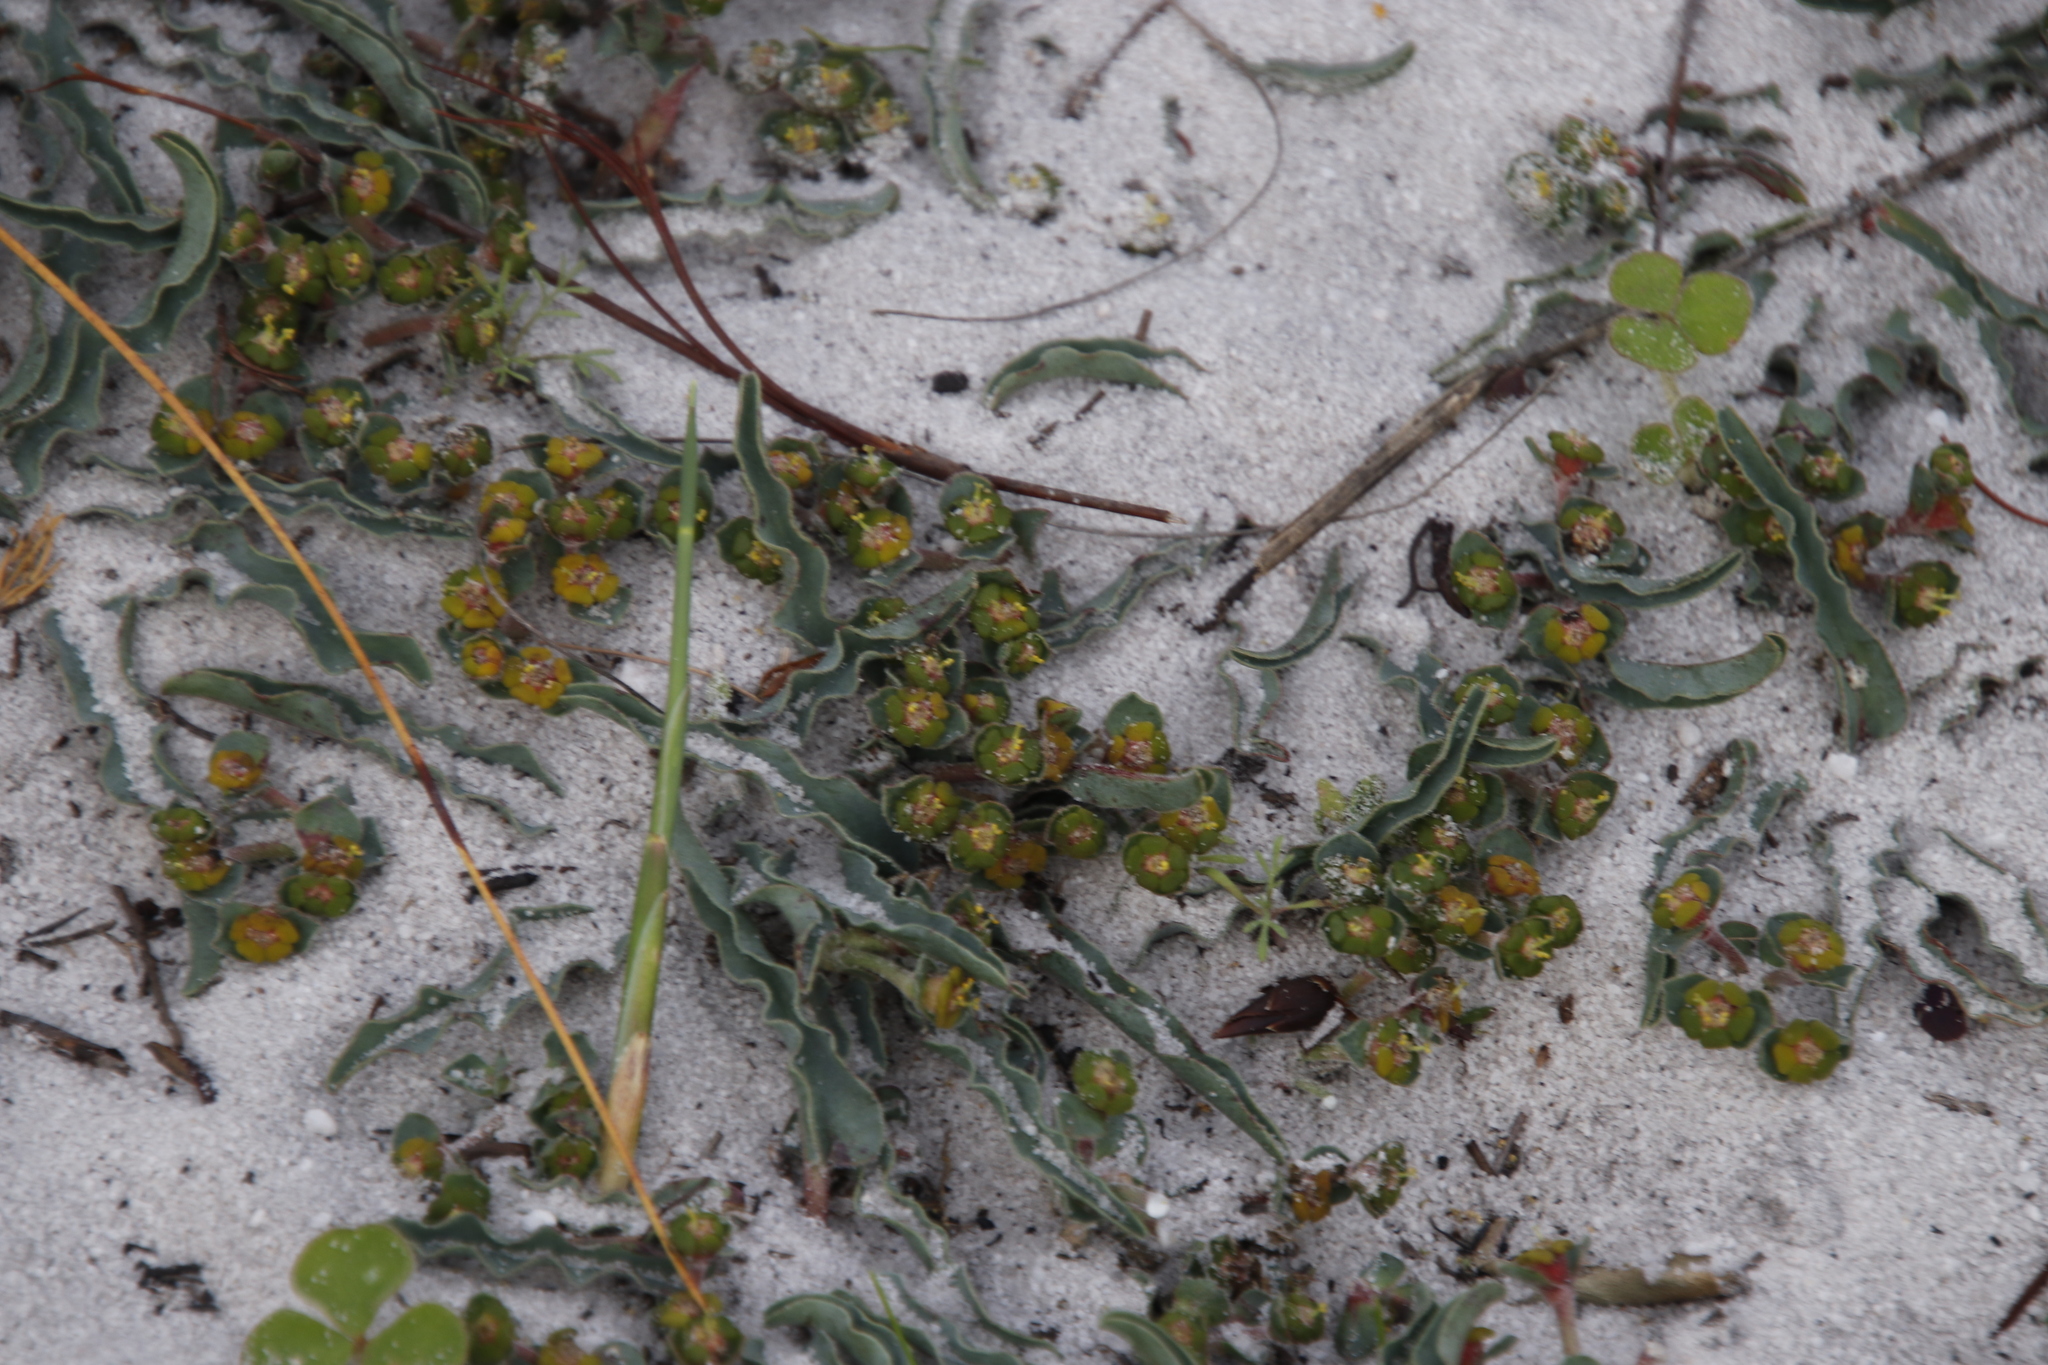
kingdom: Plantae
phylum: Tracheophyta
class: Magnoliopsida
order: Malpighiales
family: Euphorbiaceae
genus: Euphorbia
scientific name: Euphorbia tuberosa
